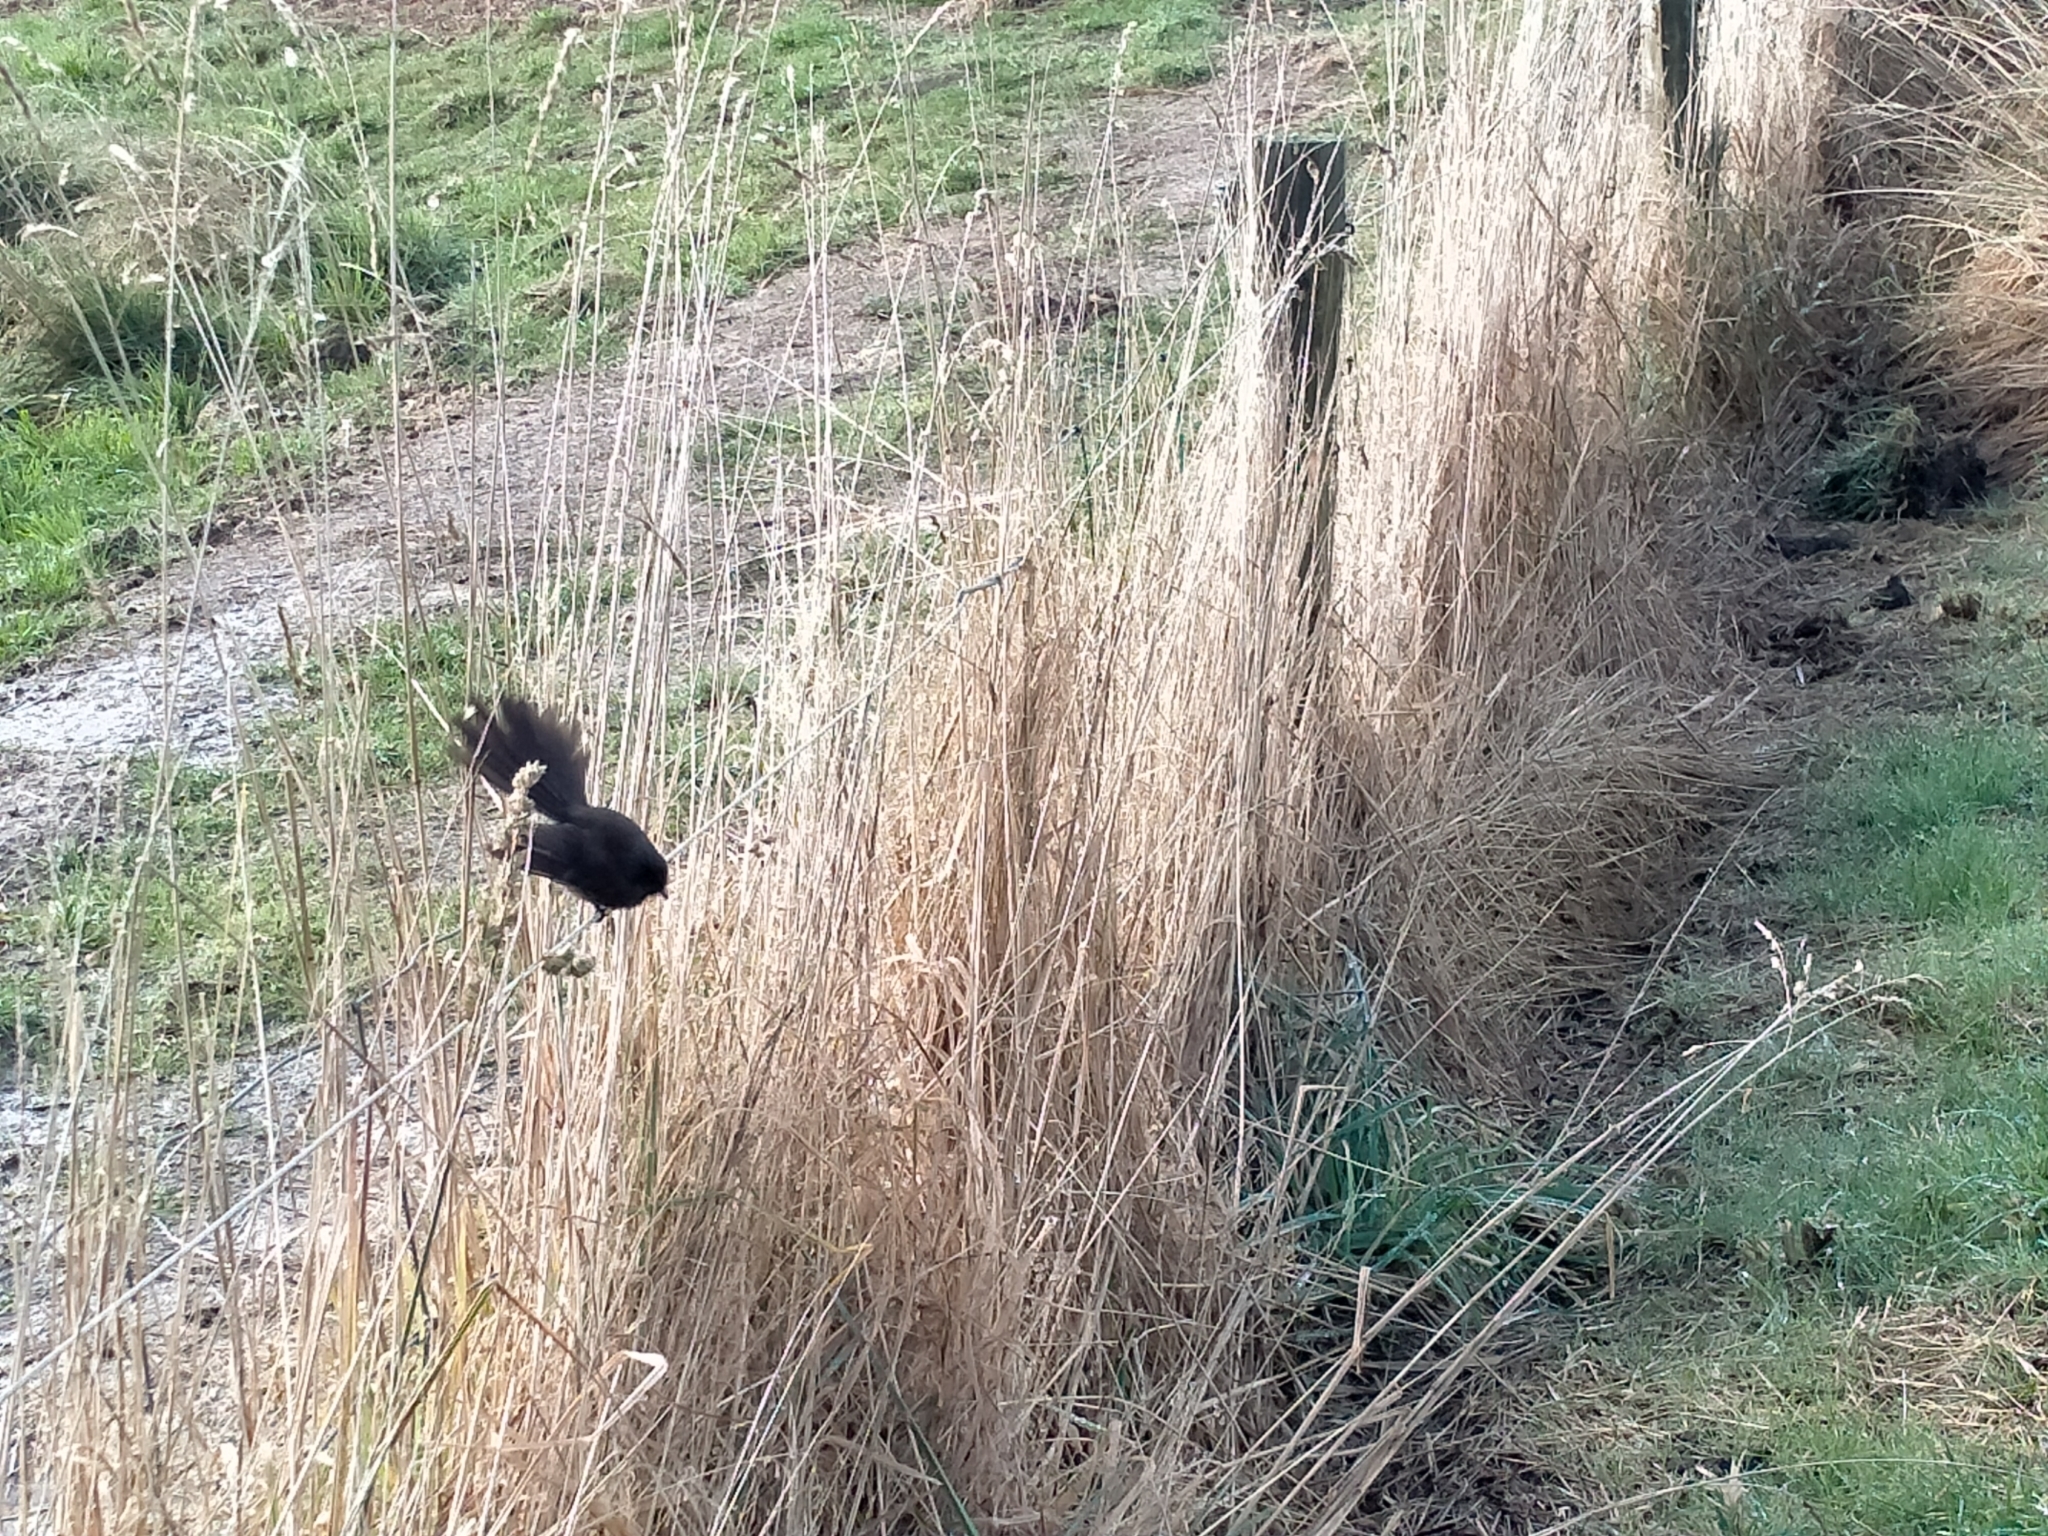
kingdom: Animalia
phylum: Chordata
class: Aves
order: Passeriformes
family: Rhipiduridae
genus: Rhipidura
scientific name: Rhipidura fuliginosa
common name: New zealand fantail
